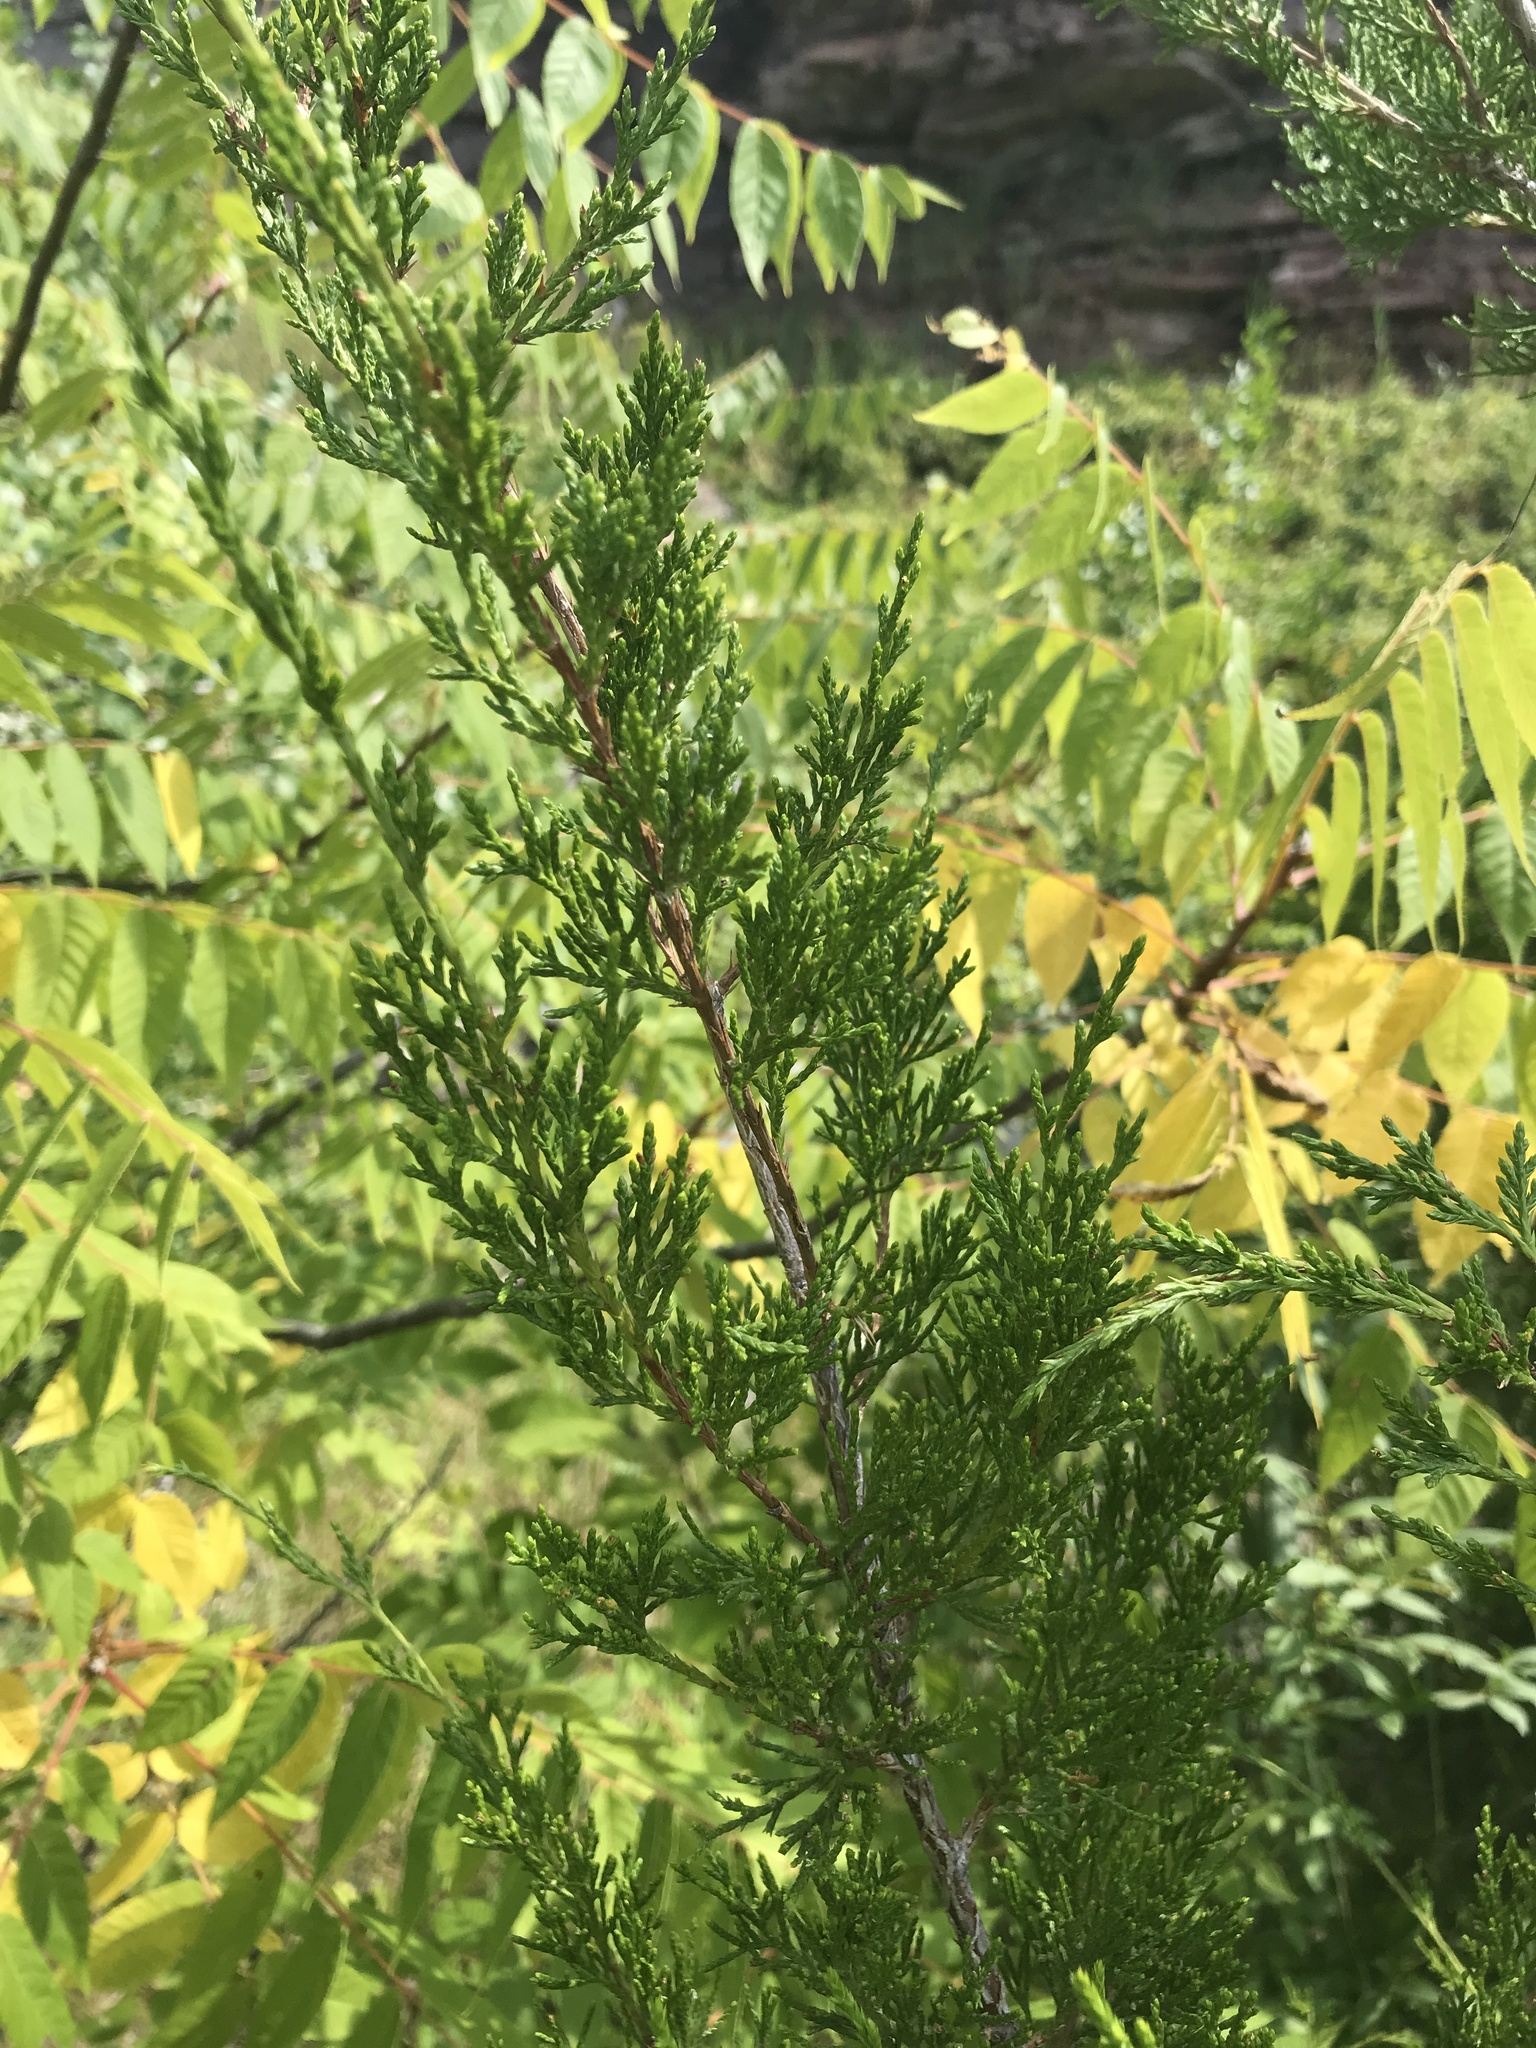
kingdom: Plantae
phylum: Tracheophyta
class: Pinopsida
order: Pinales
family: Cupressaceae
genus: Juniperus
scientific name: Juniperus virginiana
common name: Red juniper
